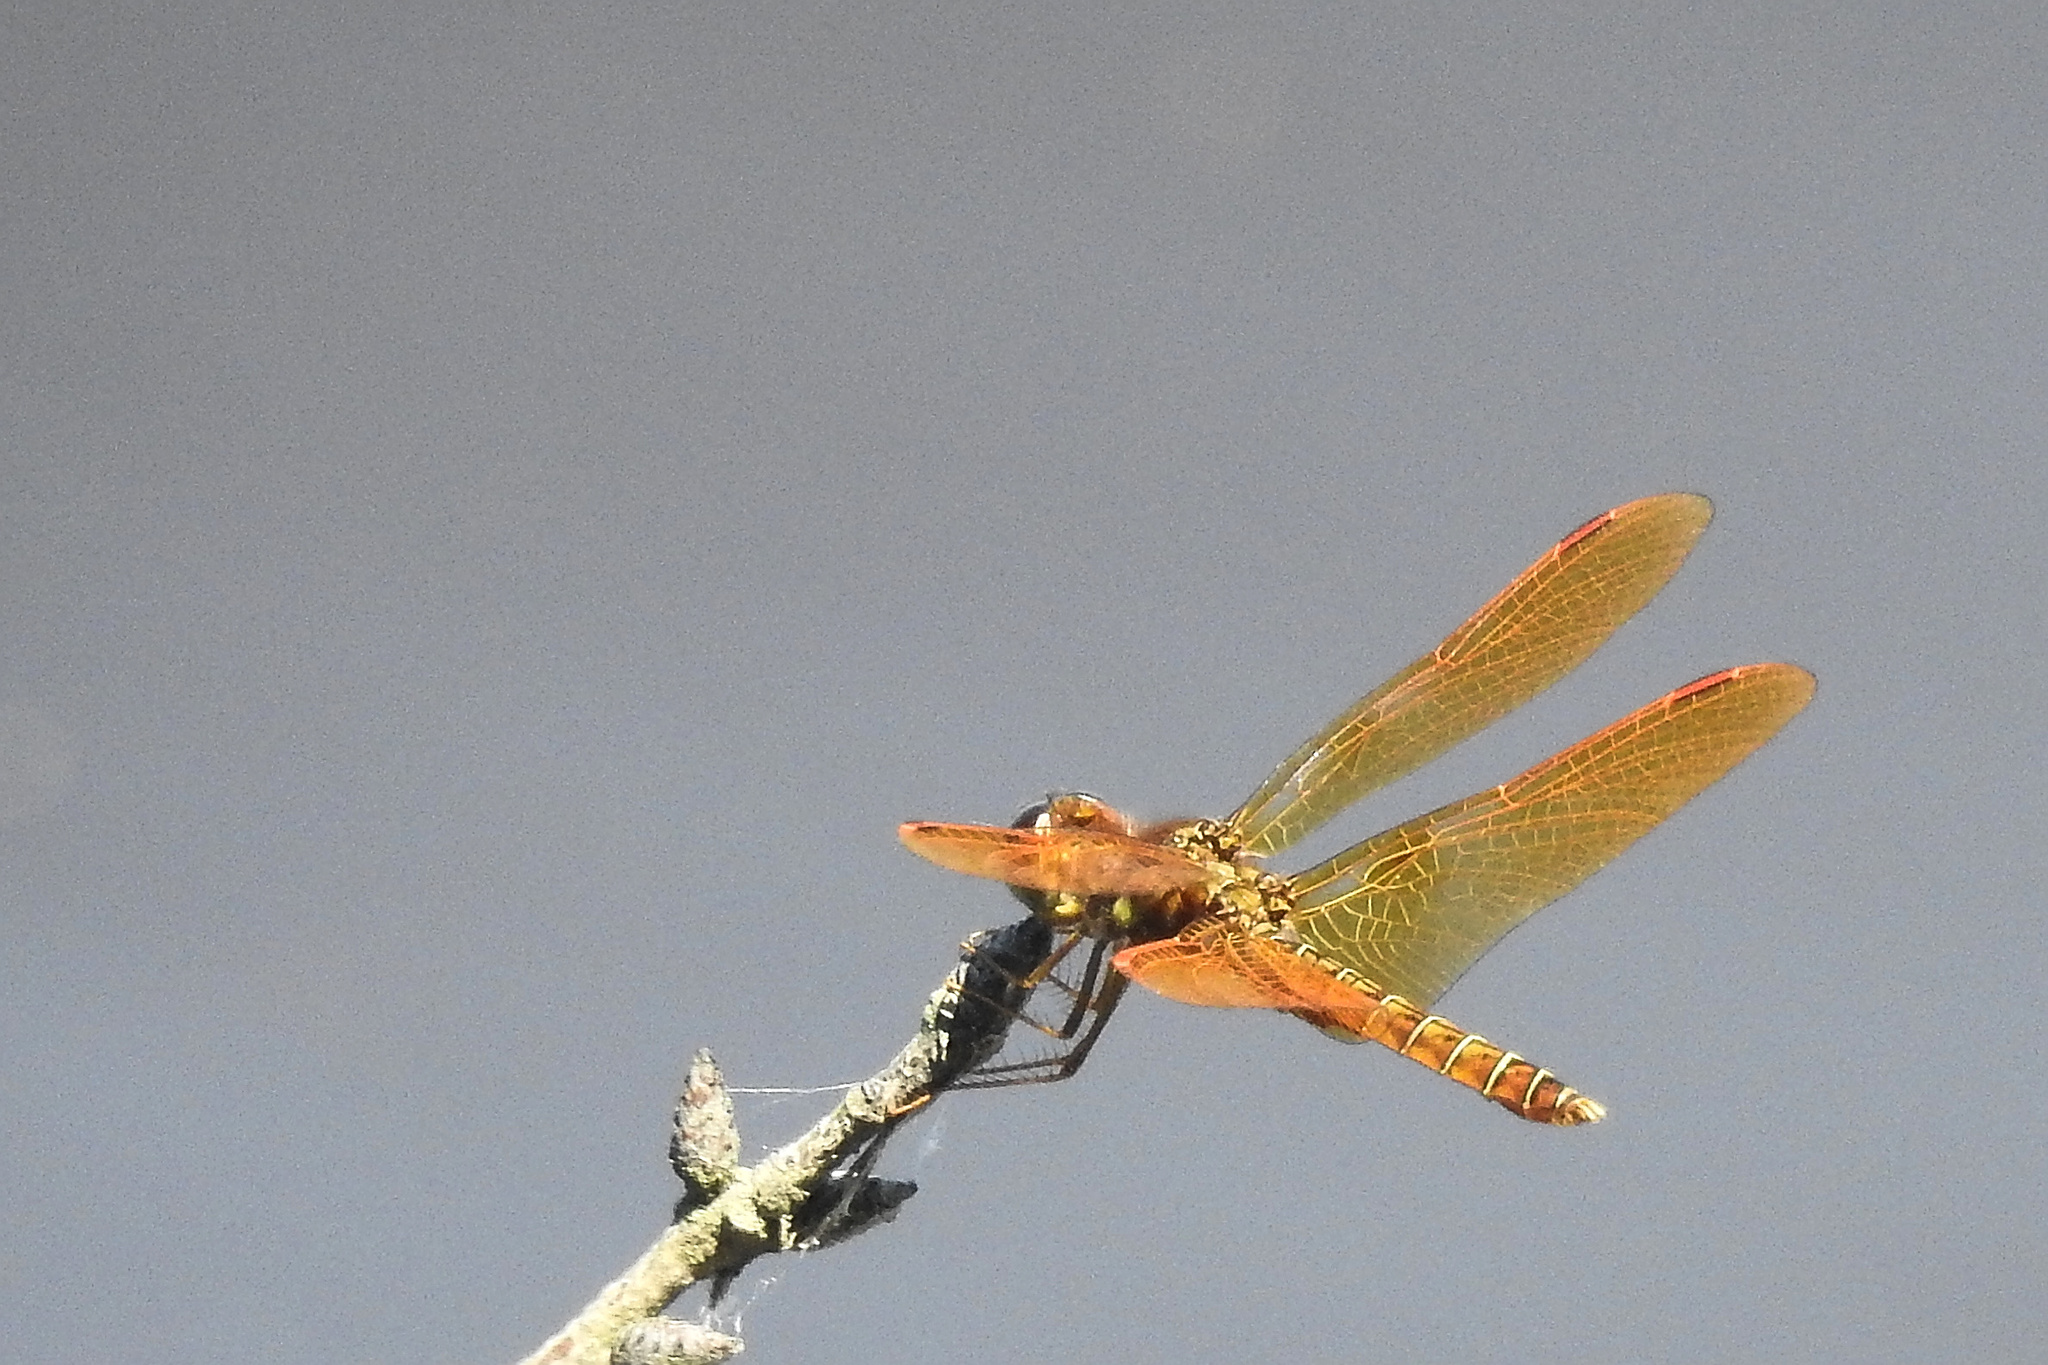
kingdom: Animalia
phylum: Arthropoda
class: Insecta
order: Odonata
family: Libellulidae
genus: Perithemis
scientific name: Perithemis tenera
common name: Eastern amberwing
